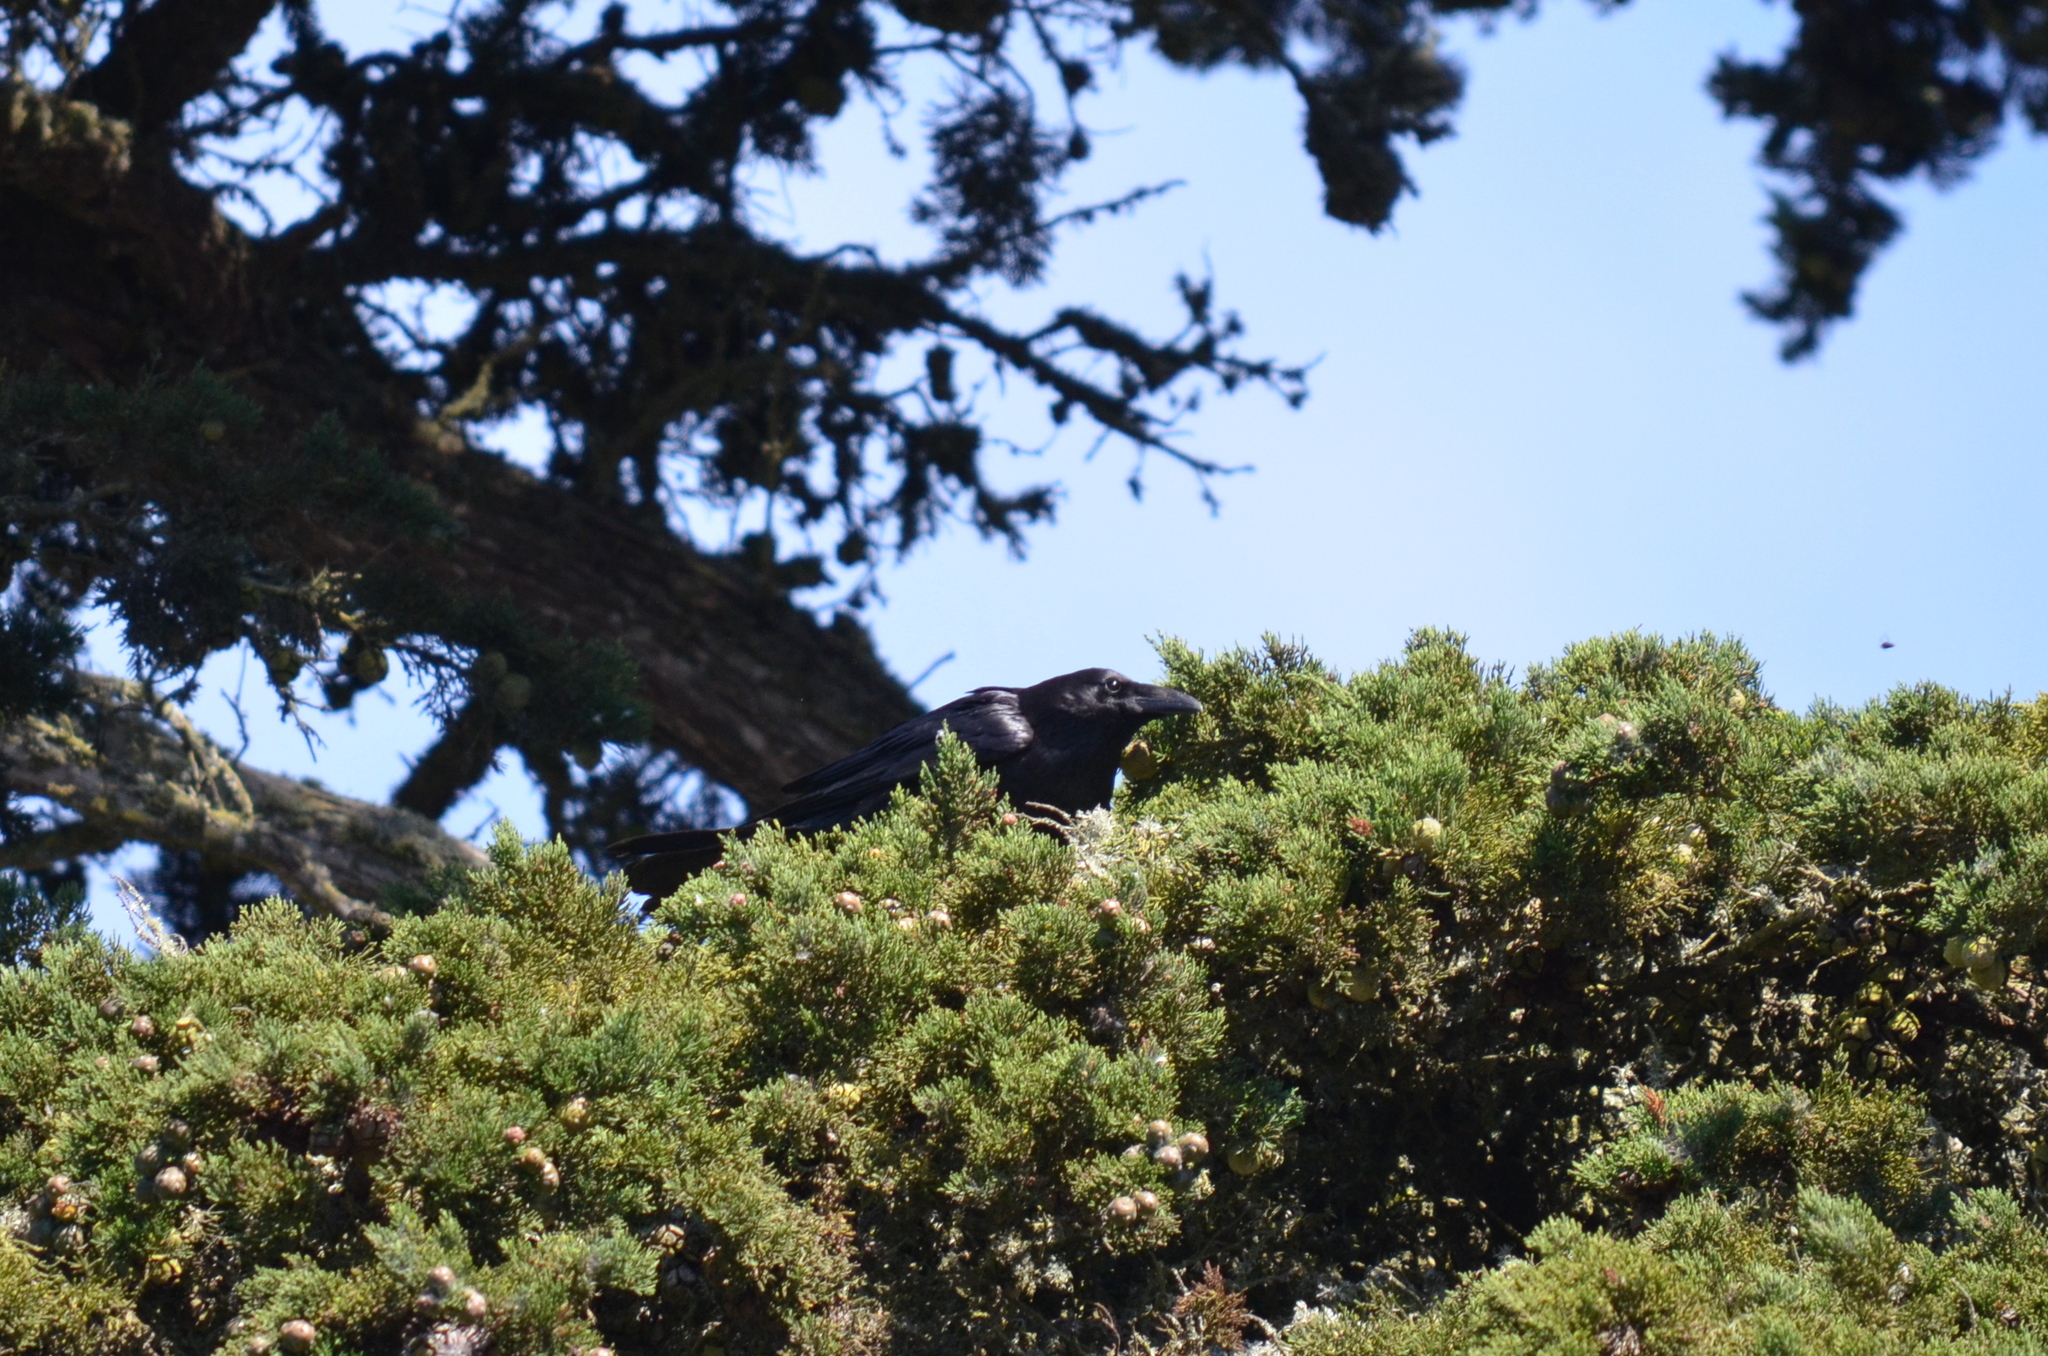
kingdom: Animalia
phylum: Chordata
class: Aves
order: Passeriformes
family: Corvidae
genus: Corvus
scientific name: Corvus corax
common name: Common raven
